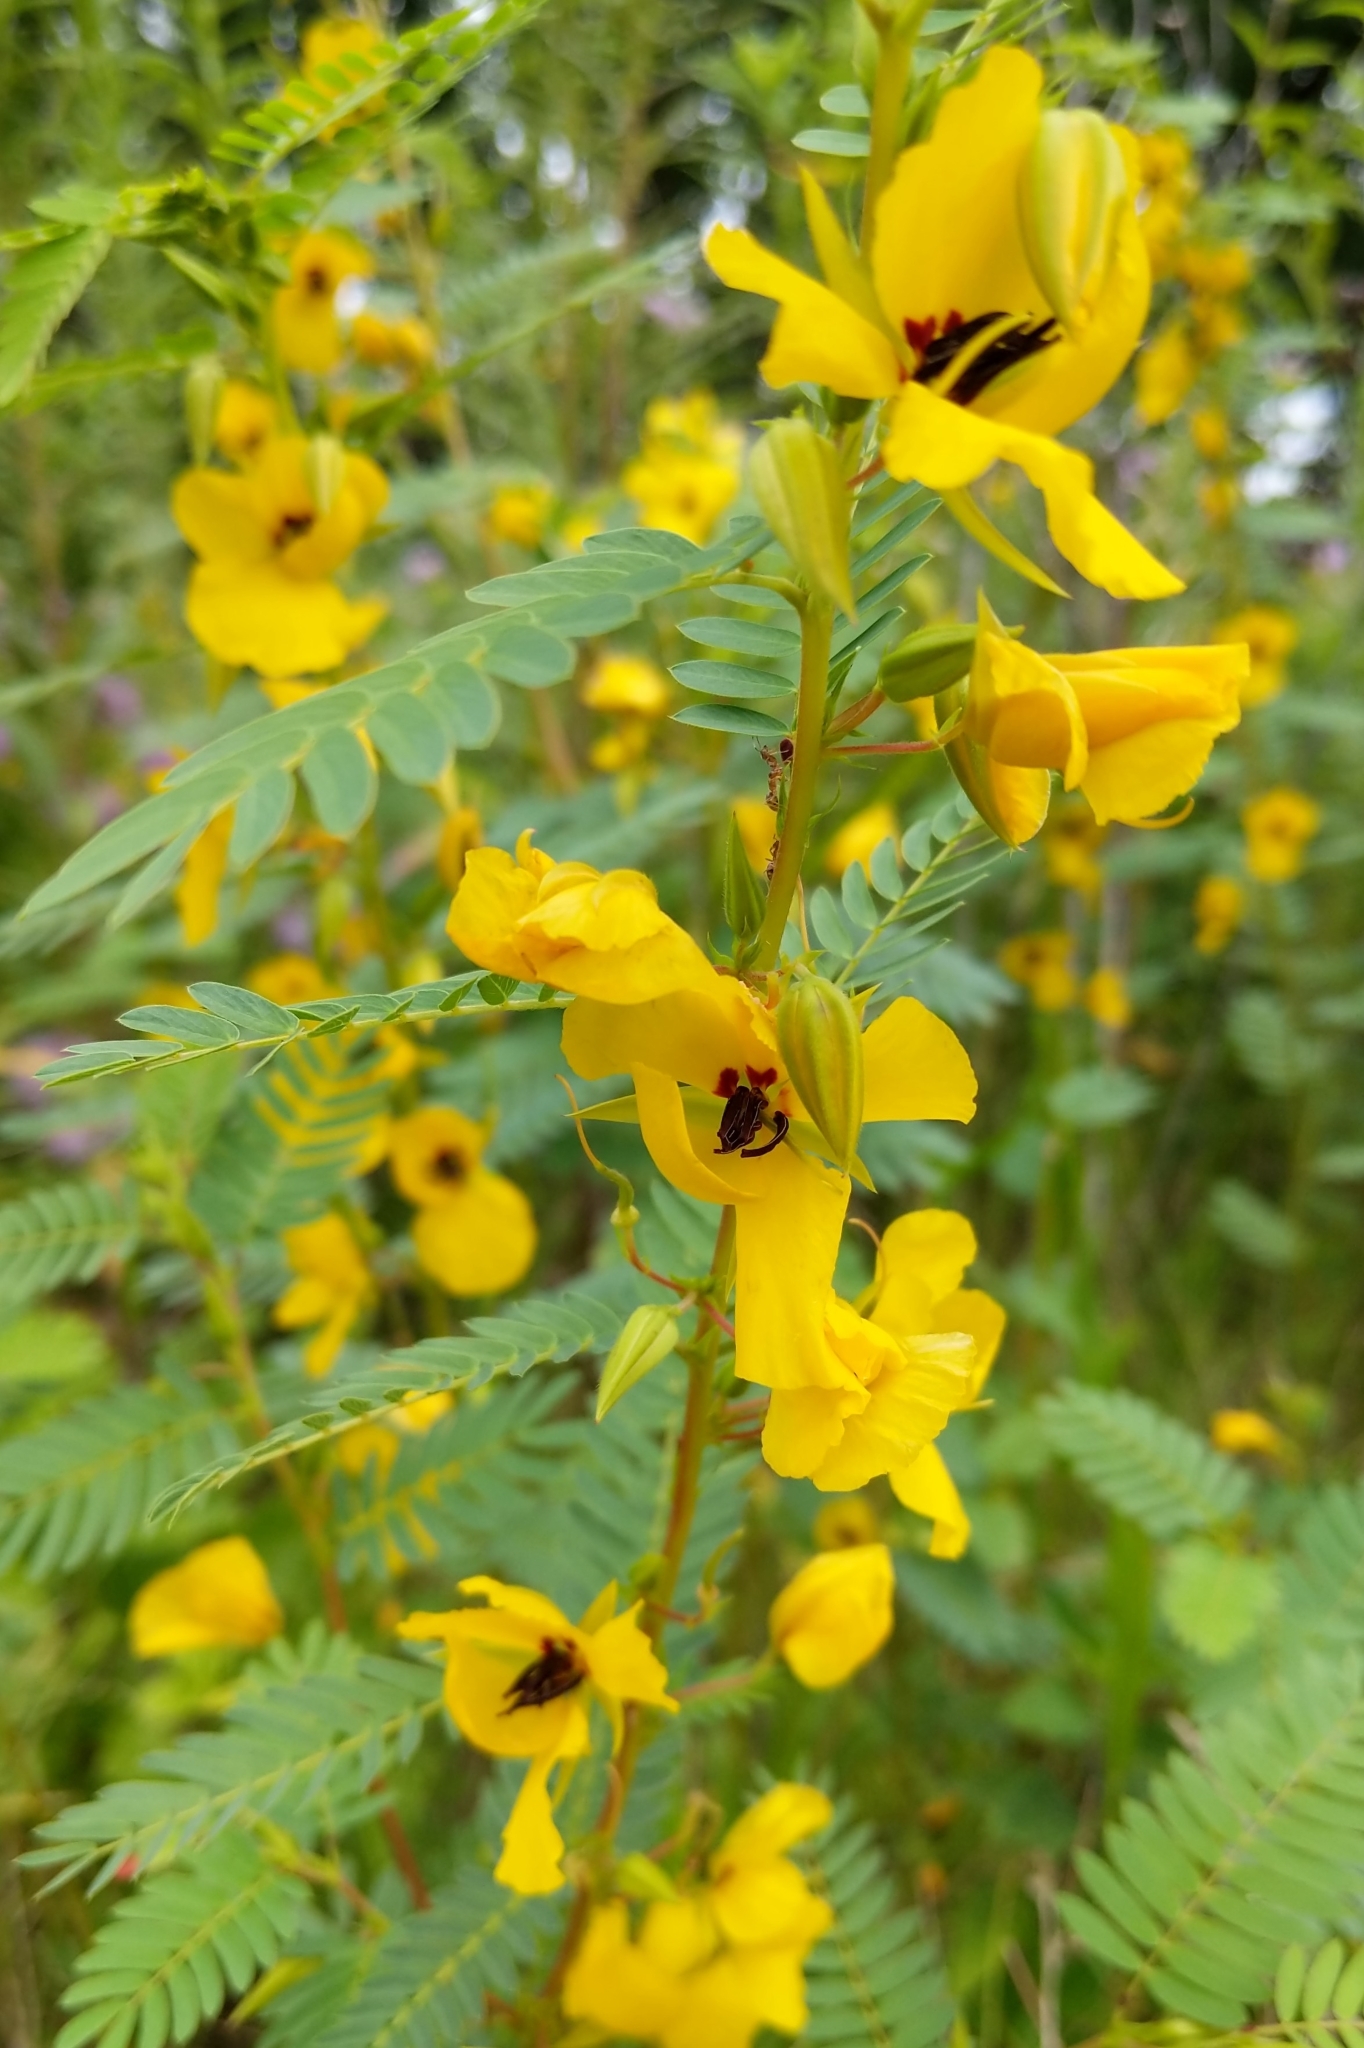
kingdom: Plantae
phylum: Tracheophyta
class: Magnoliopsida
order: Fabales
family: Fabaceae
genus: Chamaecrista
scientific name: Chamaecrista fasciculata
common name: Golden cassia
